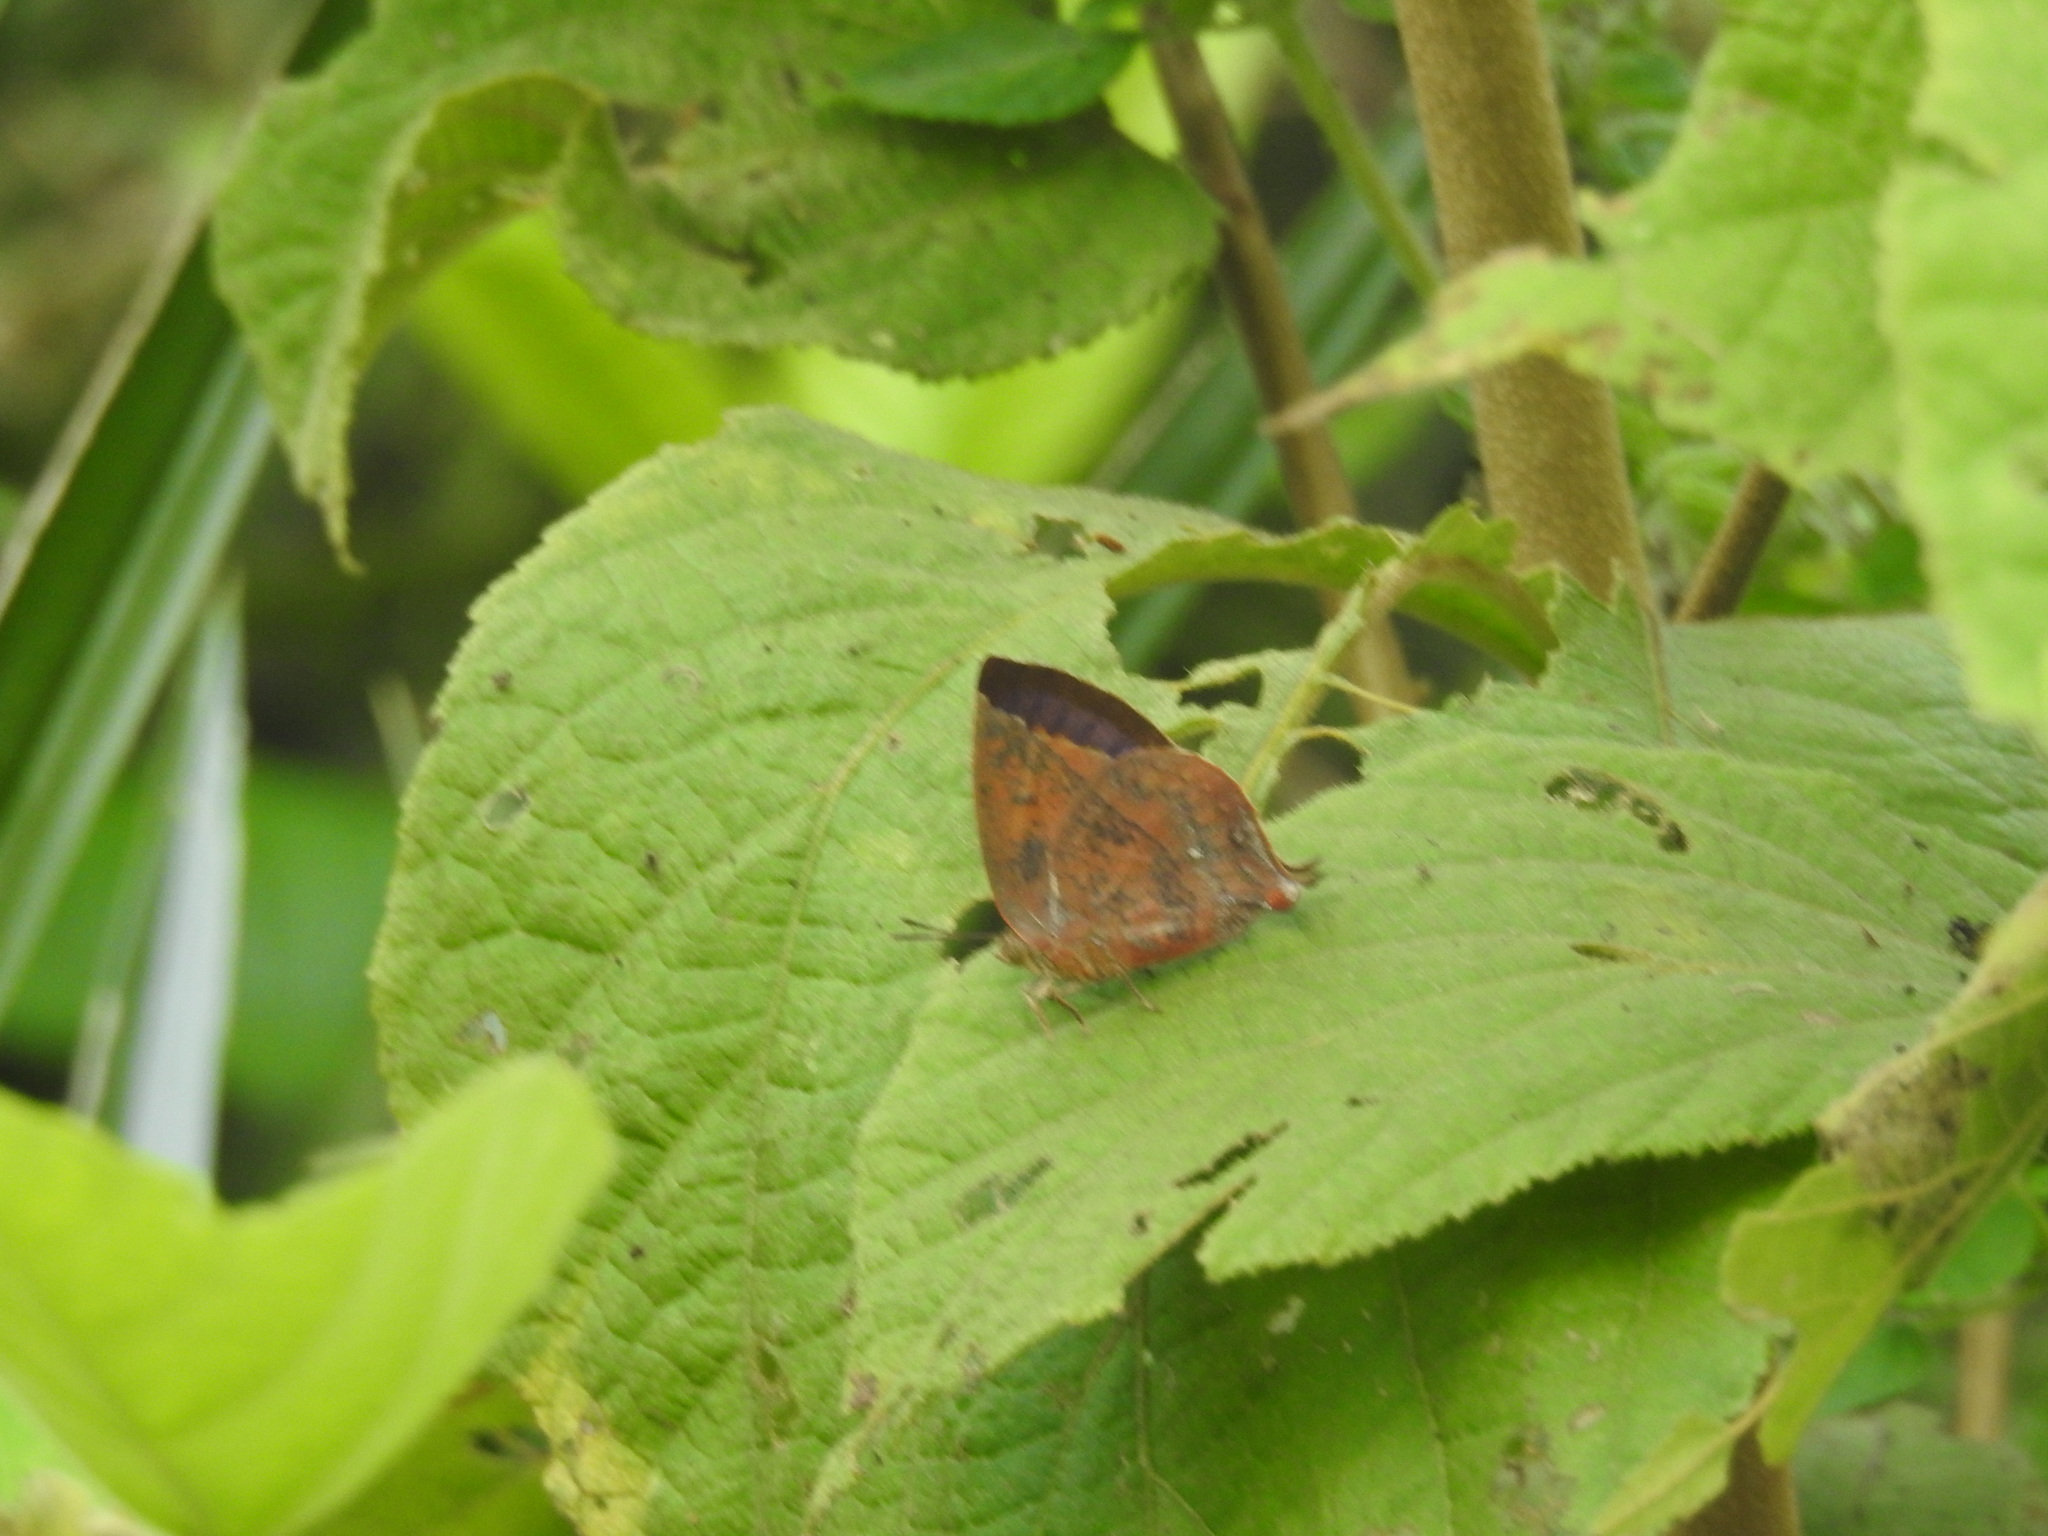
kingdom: Animalia
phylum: Arthropoda
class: Insecta
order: Lepidoptera
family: Lycaenidae
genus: Amblypodia
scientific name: Amblypodia anita
